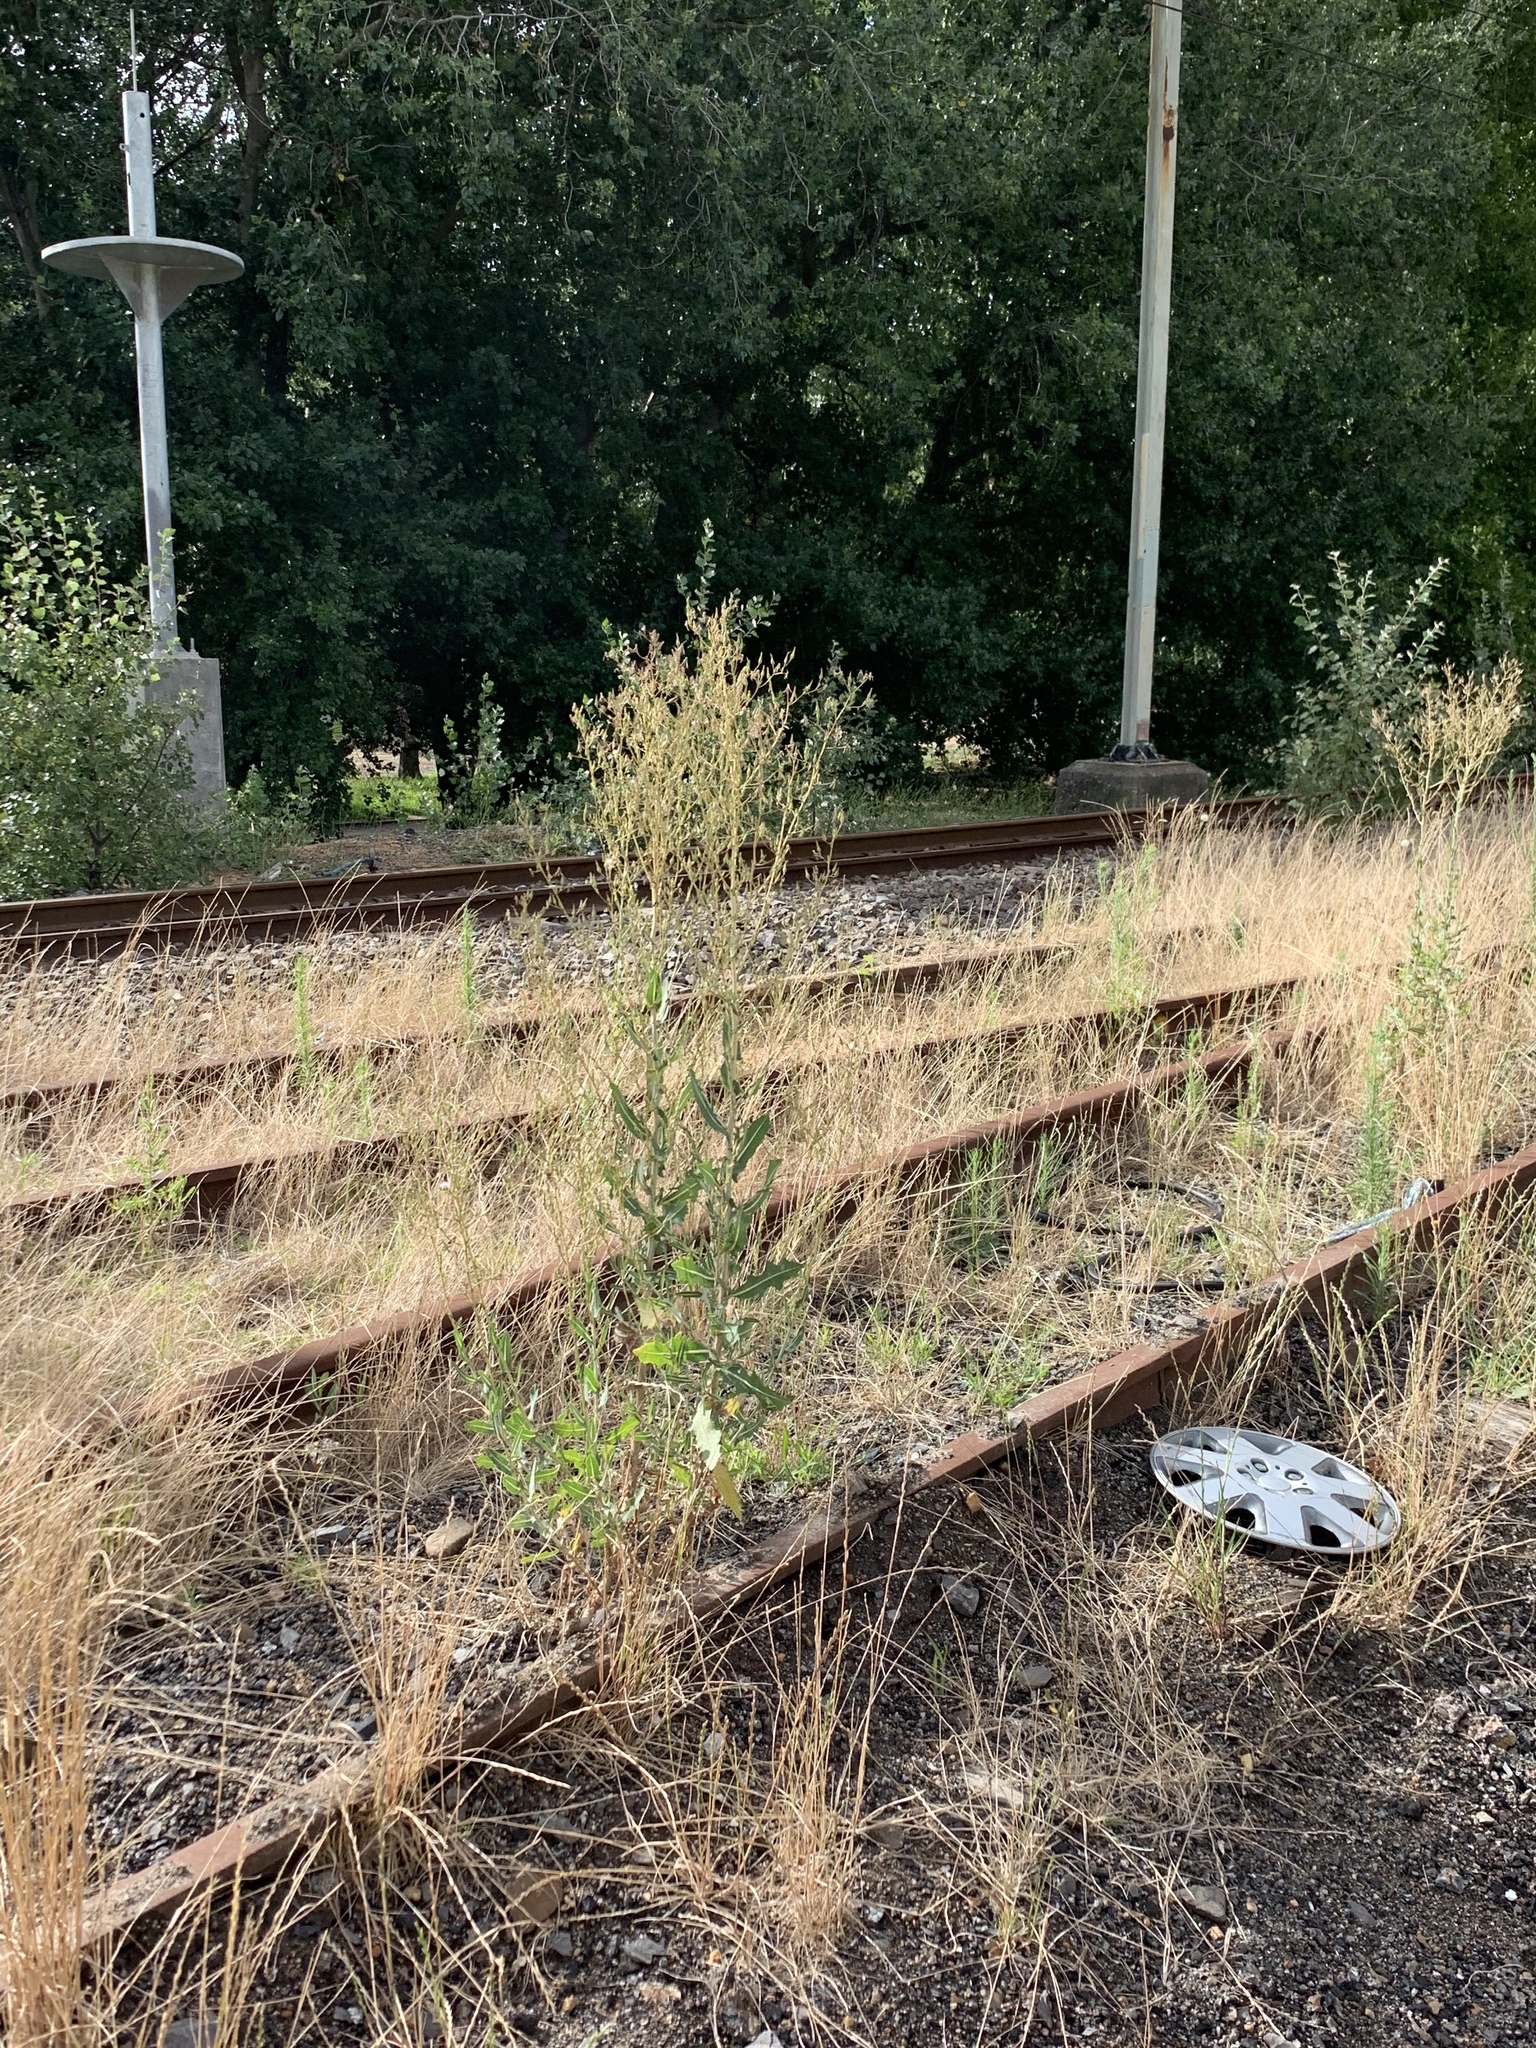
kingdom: Plantae
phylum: Tracheophyta
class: Magnoliopsida
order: Asterales
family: Asteraceae
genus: Lactuca
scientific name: Lactuca serriola
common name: Prickly lettuce
